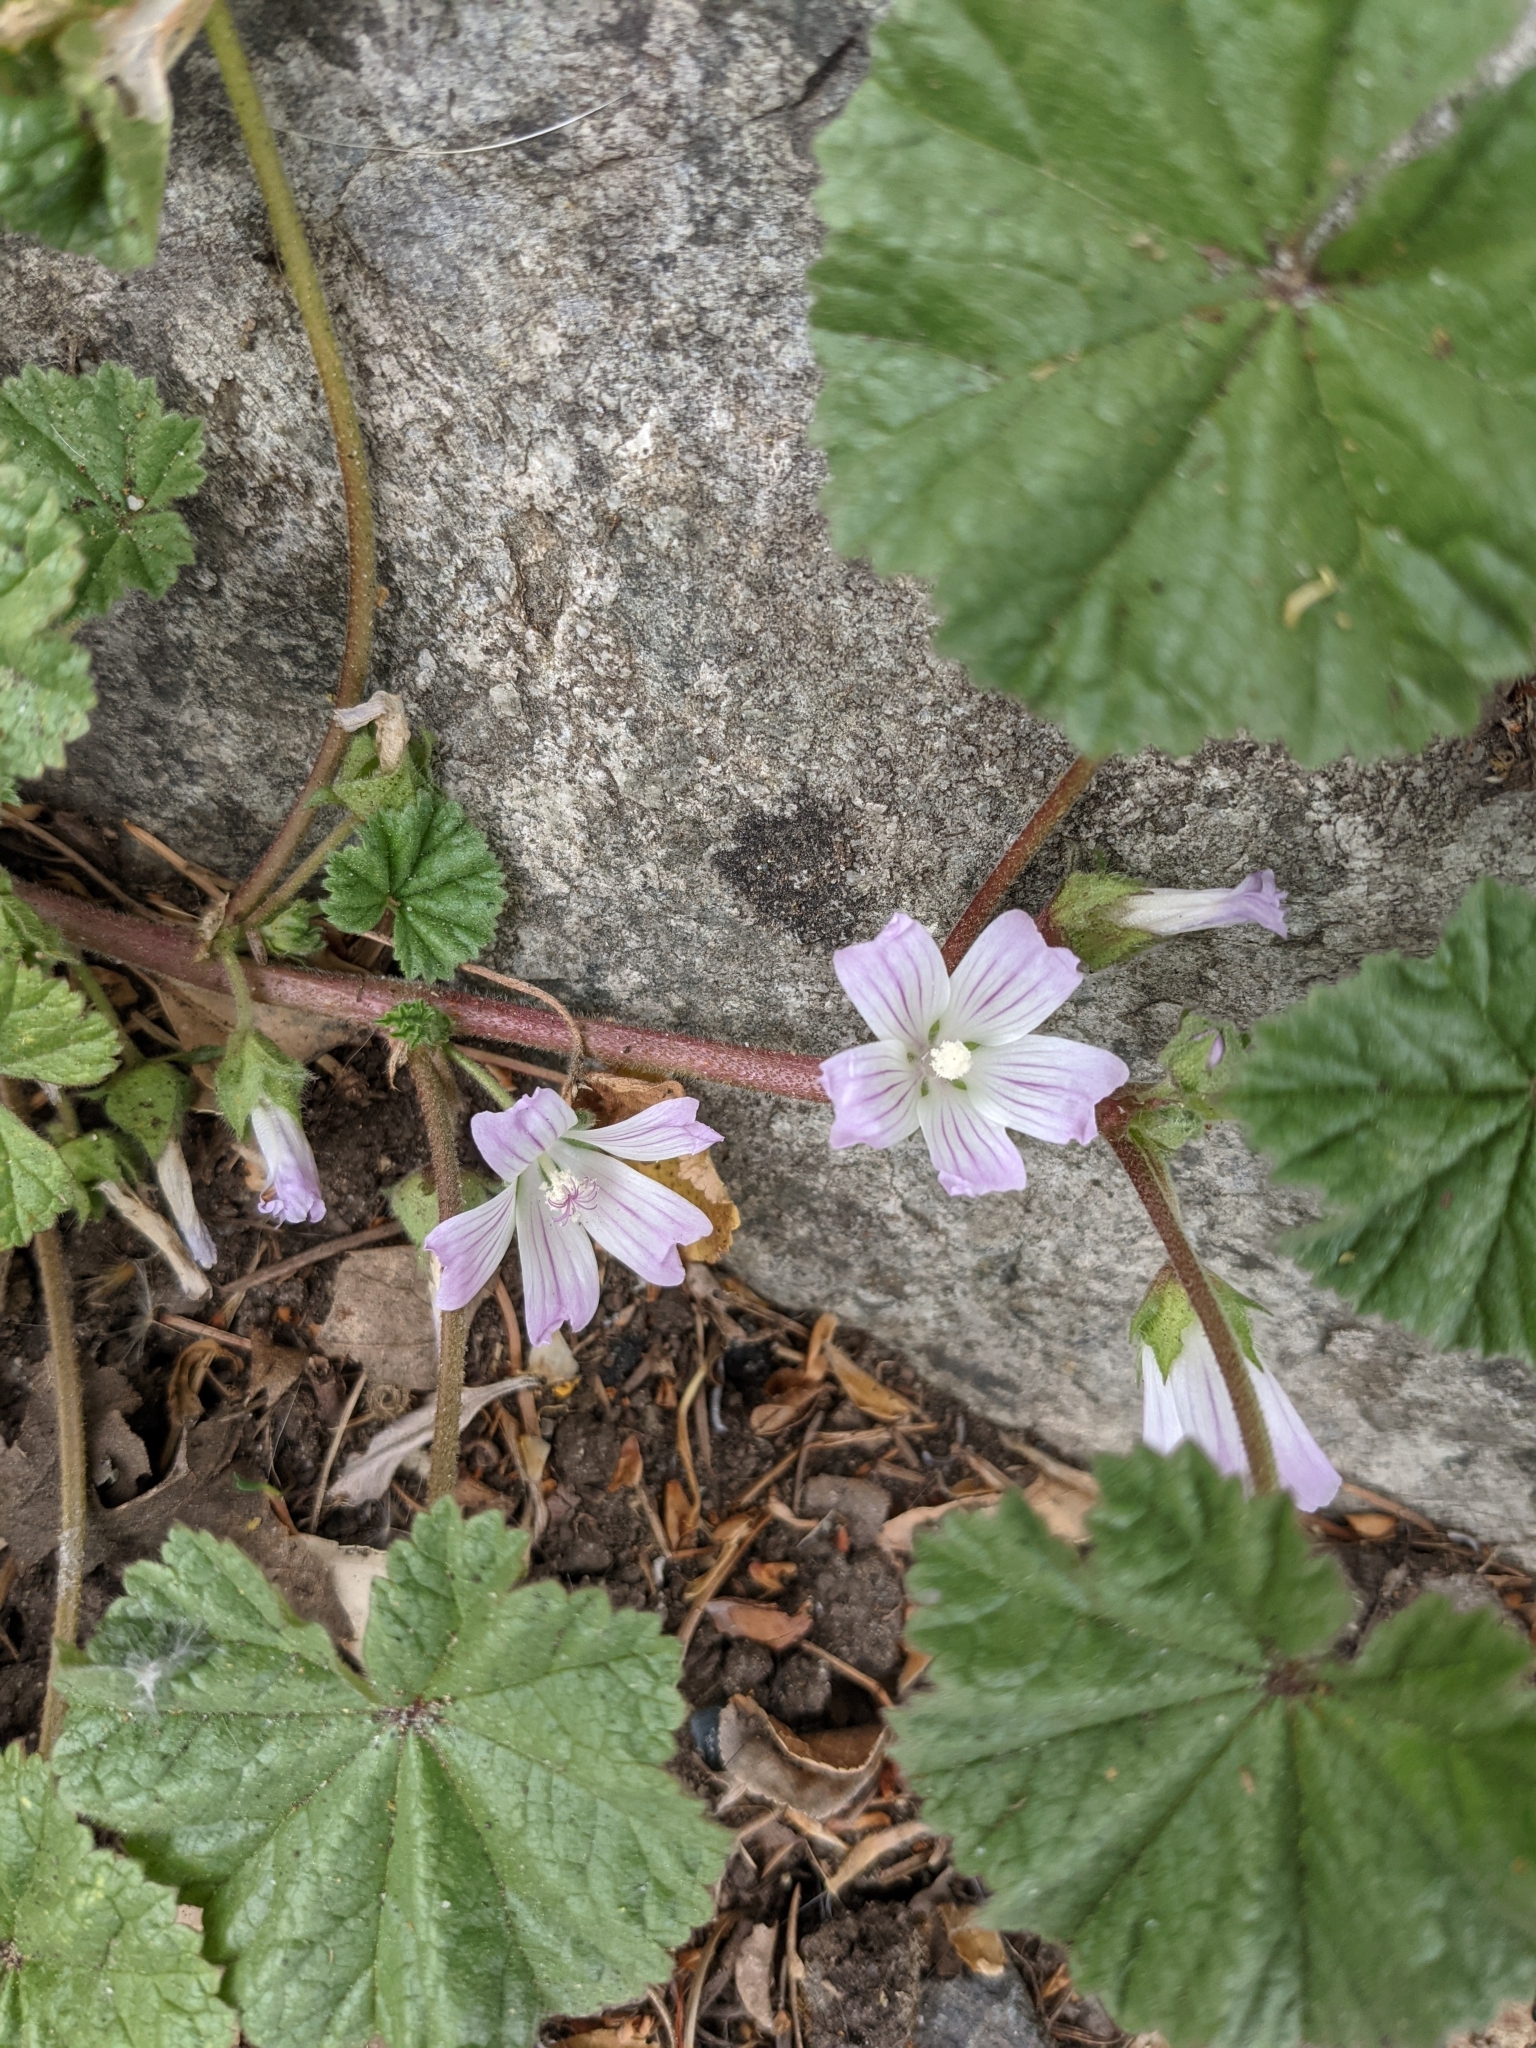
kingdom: Plantae
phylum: Tracheophyta
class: Magnoliopsida
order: Malvales
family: Malvaceae
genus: Malva
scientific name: Malva neglecta
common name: Common mallow
